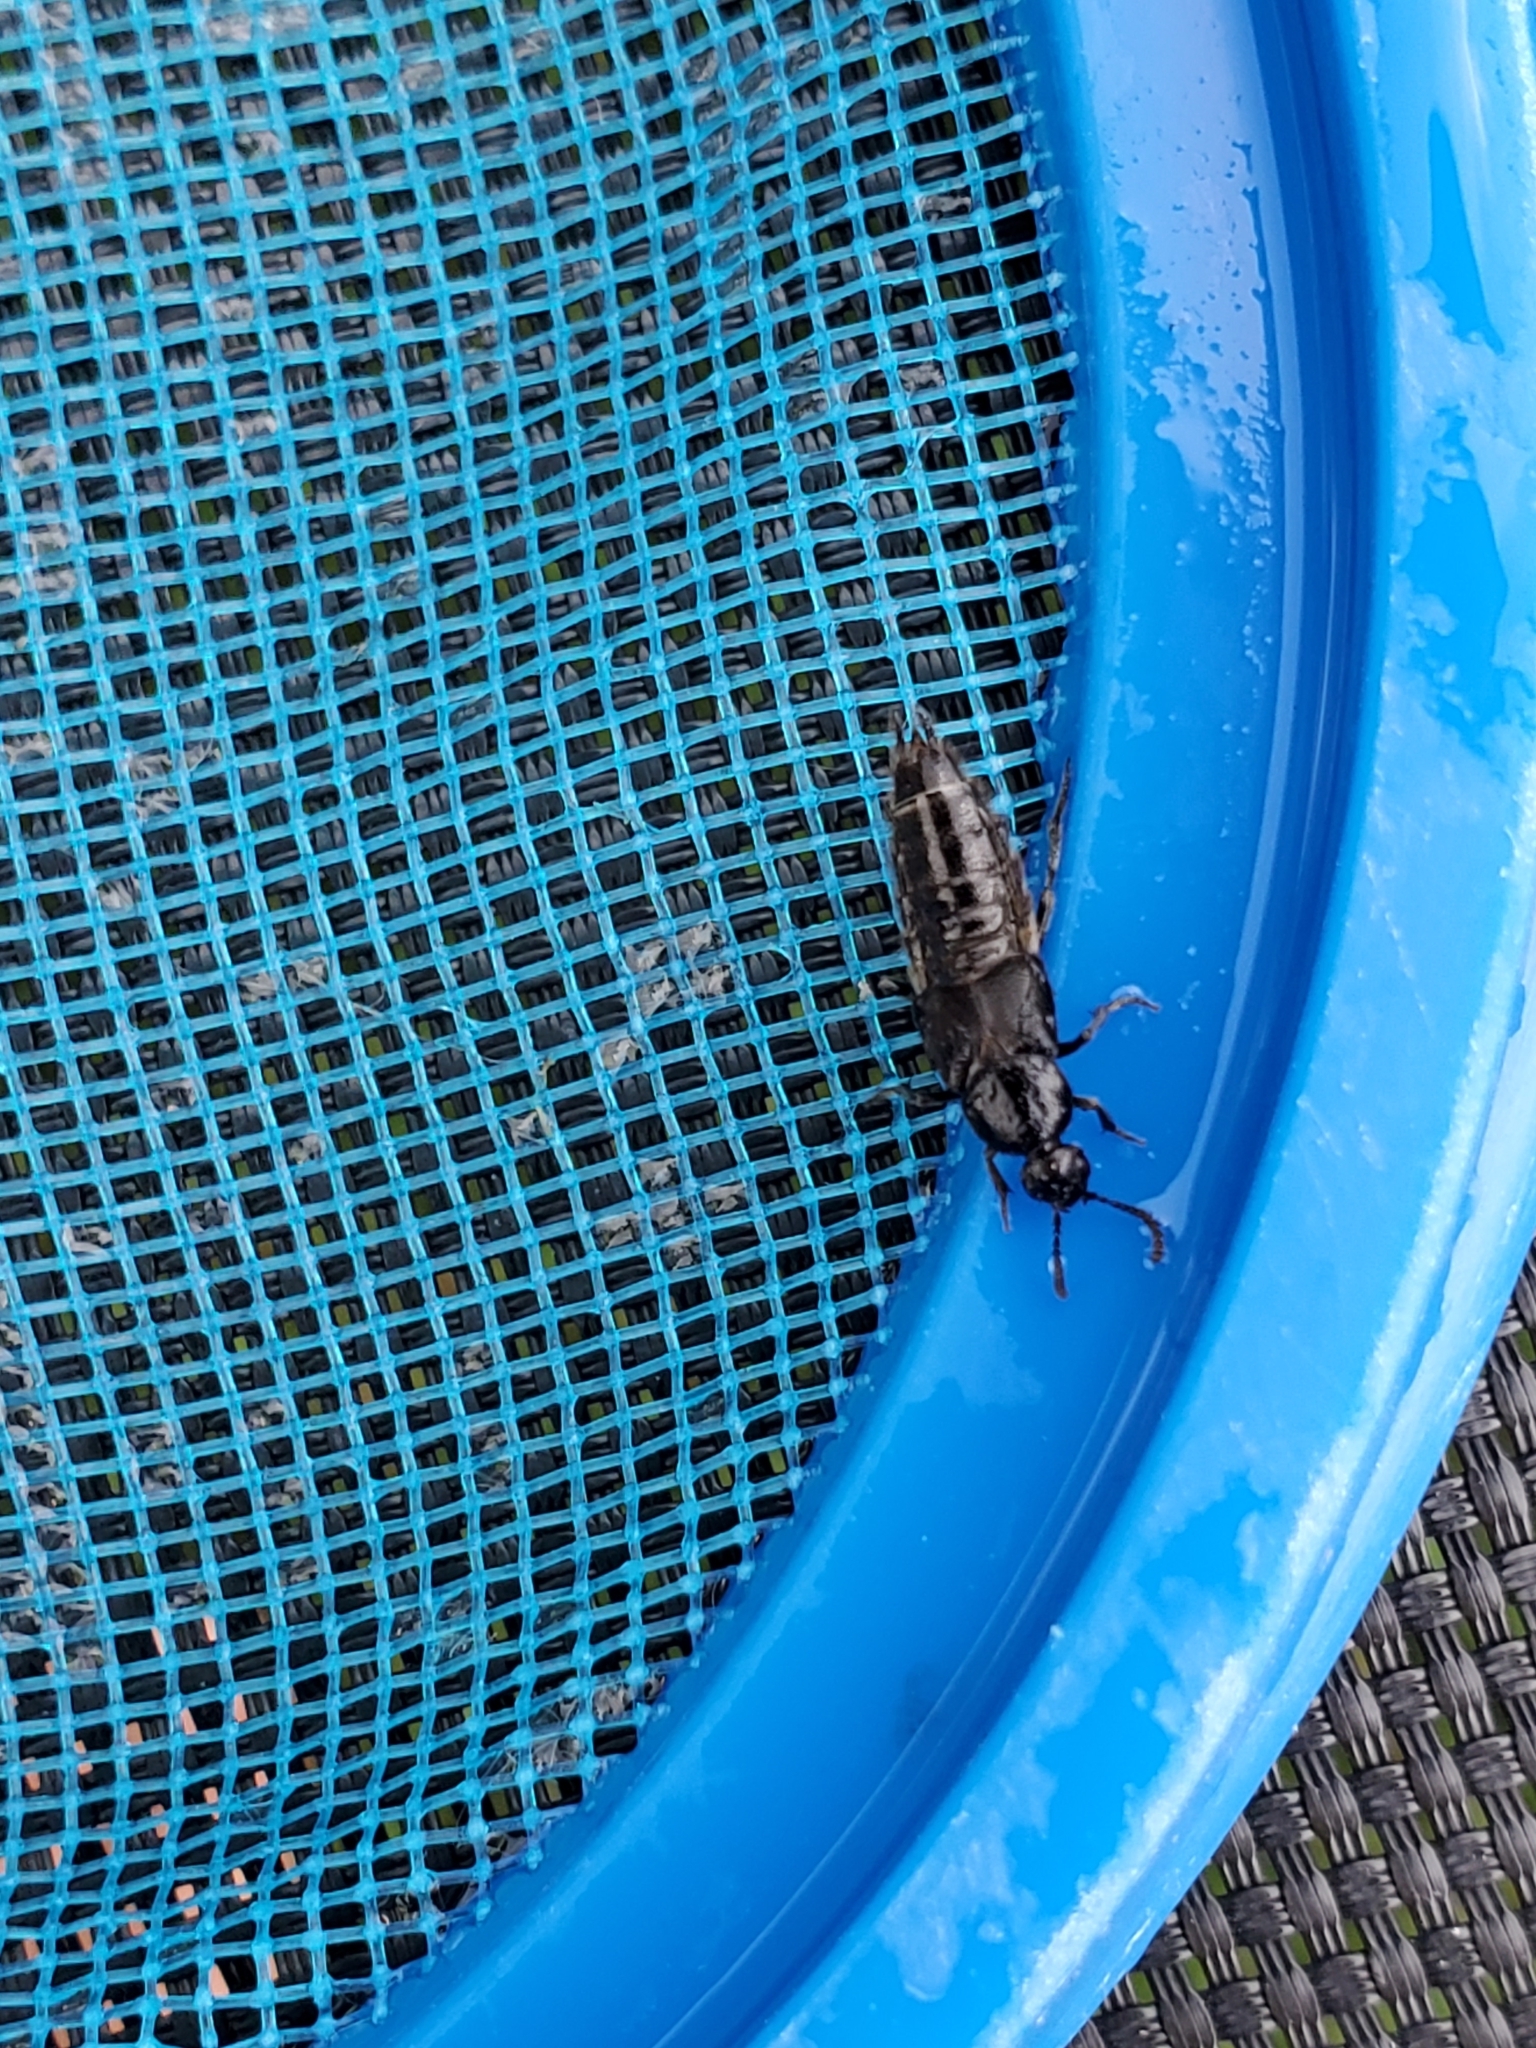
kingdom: Animalia
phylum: Arthropoda
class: Insecta
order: Coleoptera
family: Staphylinidae
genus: Tympanophorus
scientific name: Tympanophorus puncticollis
